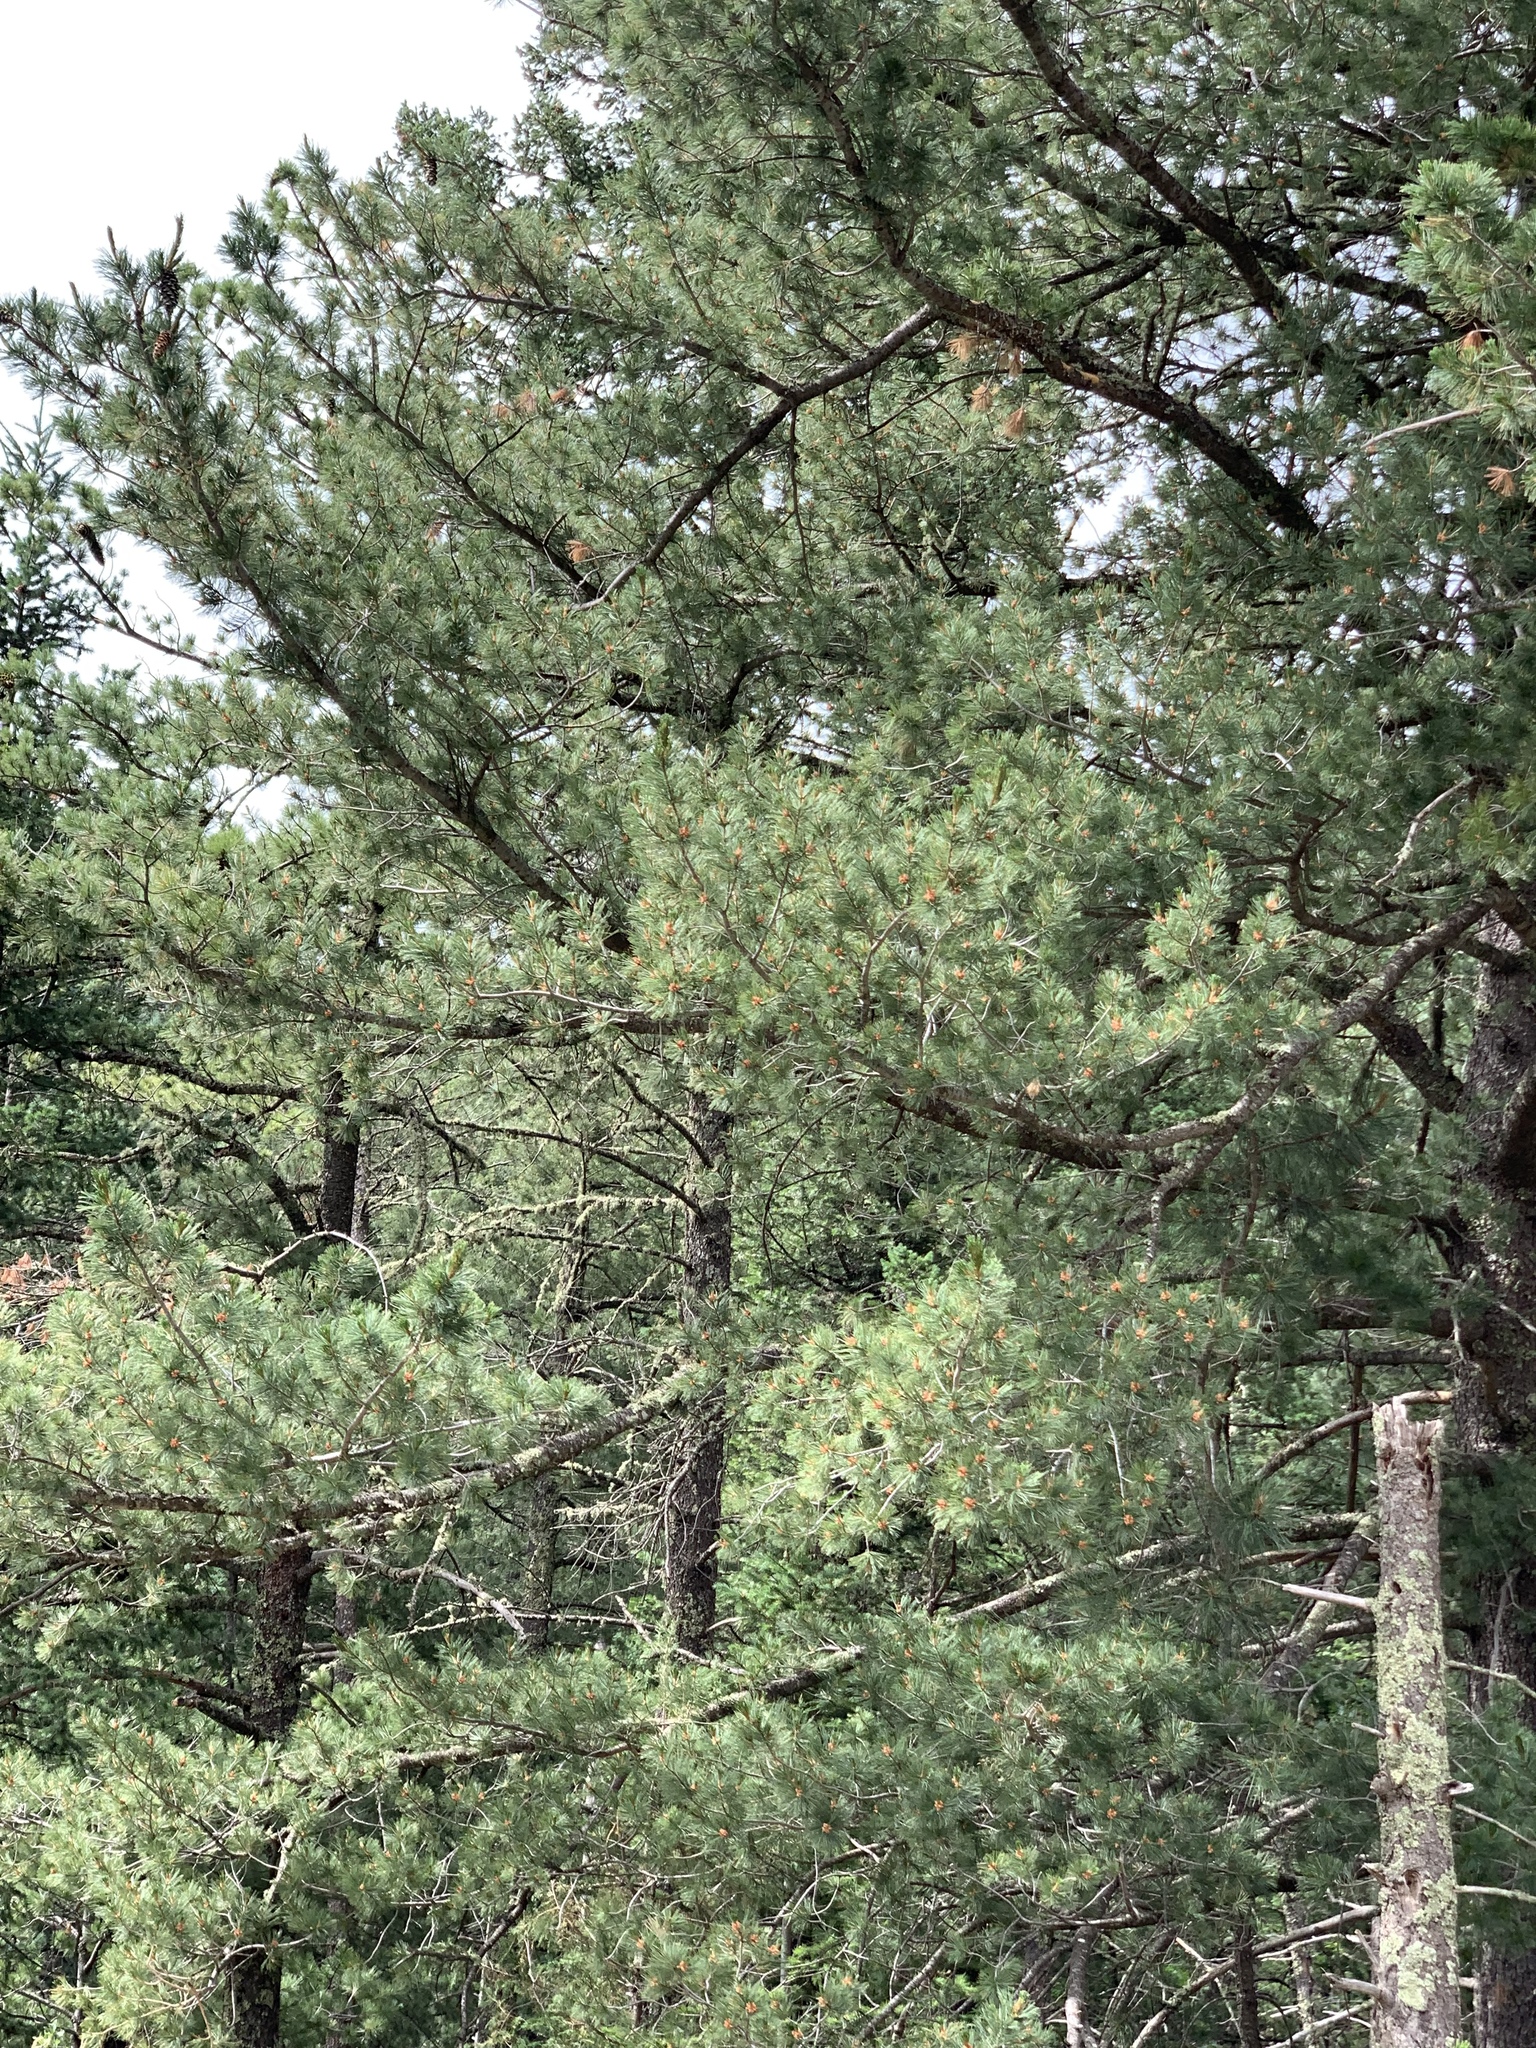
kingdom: Plantae
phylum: Tracheophyta
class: Pinopsida
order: Pinales
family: Pinaceae
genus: Pinus
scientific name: Pinus strobiformis
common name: Southwestern white pine
